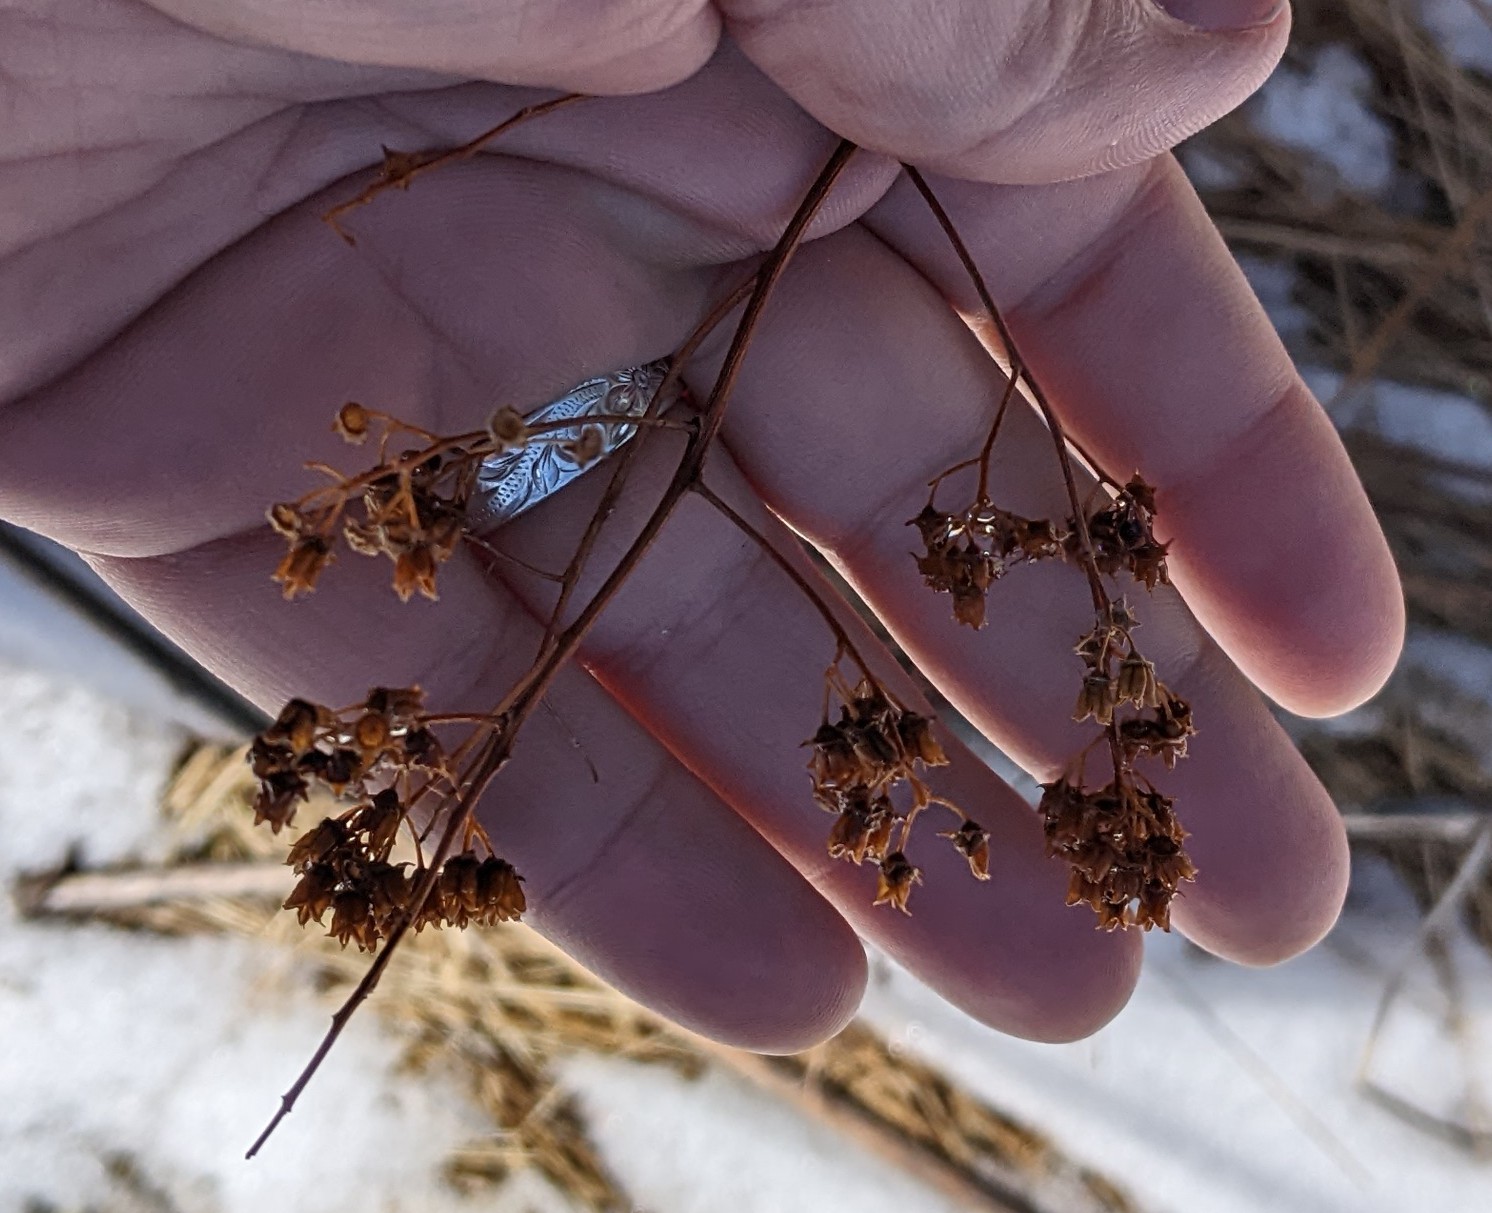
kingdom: Plantae
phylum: Tracheophyta
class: Magnoliopsida
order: Rosales
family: Rosaceae
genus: Spiraea
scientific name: Spiraea alba
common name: Pale bridewort
